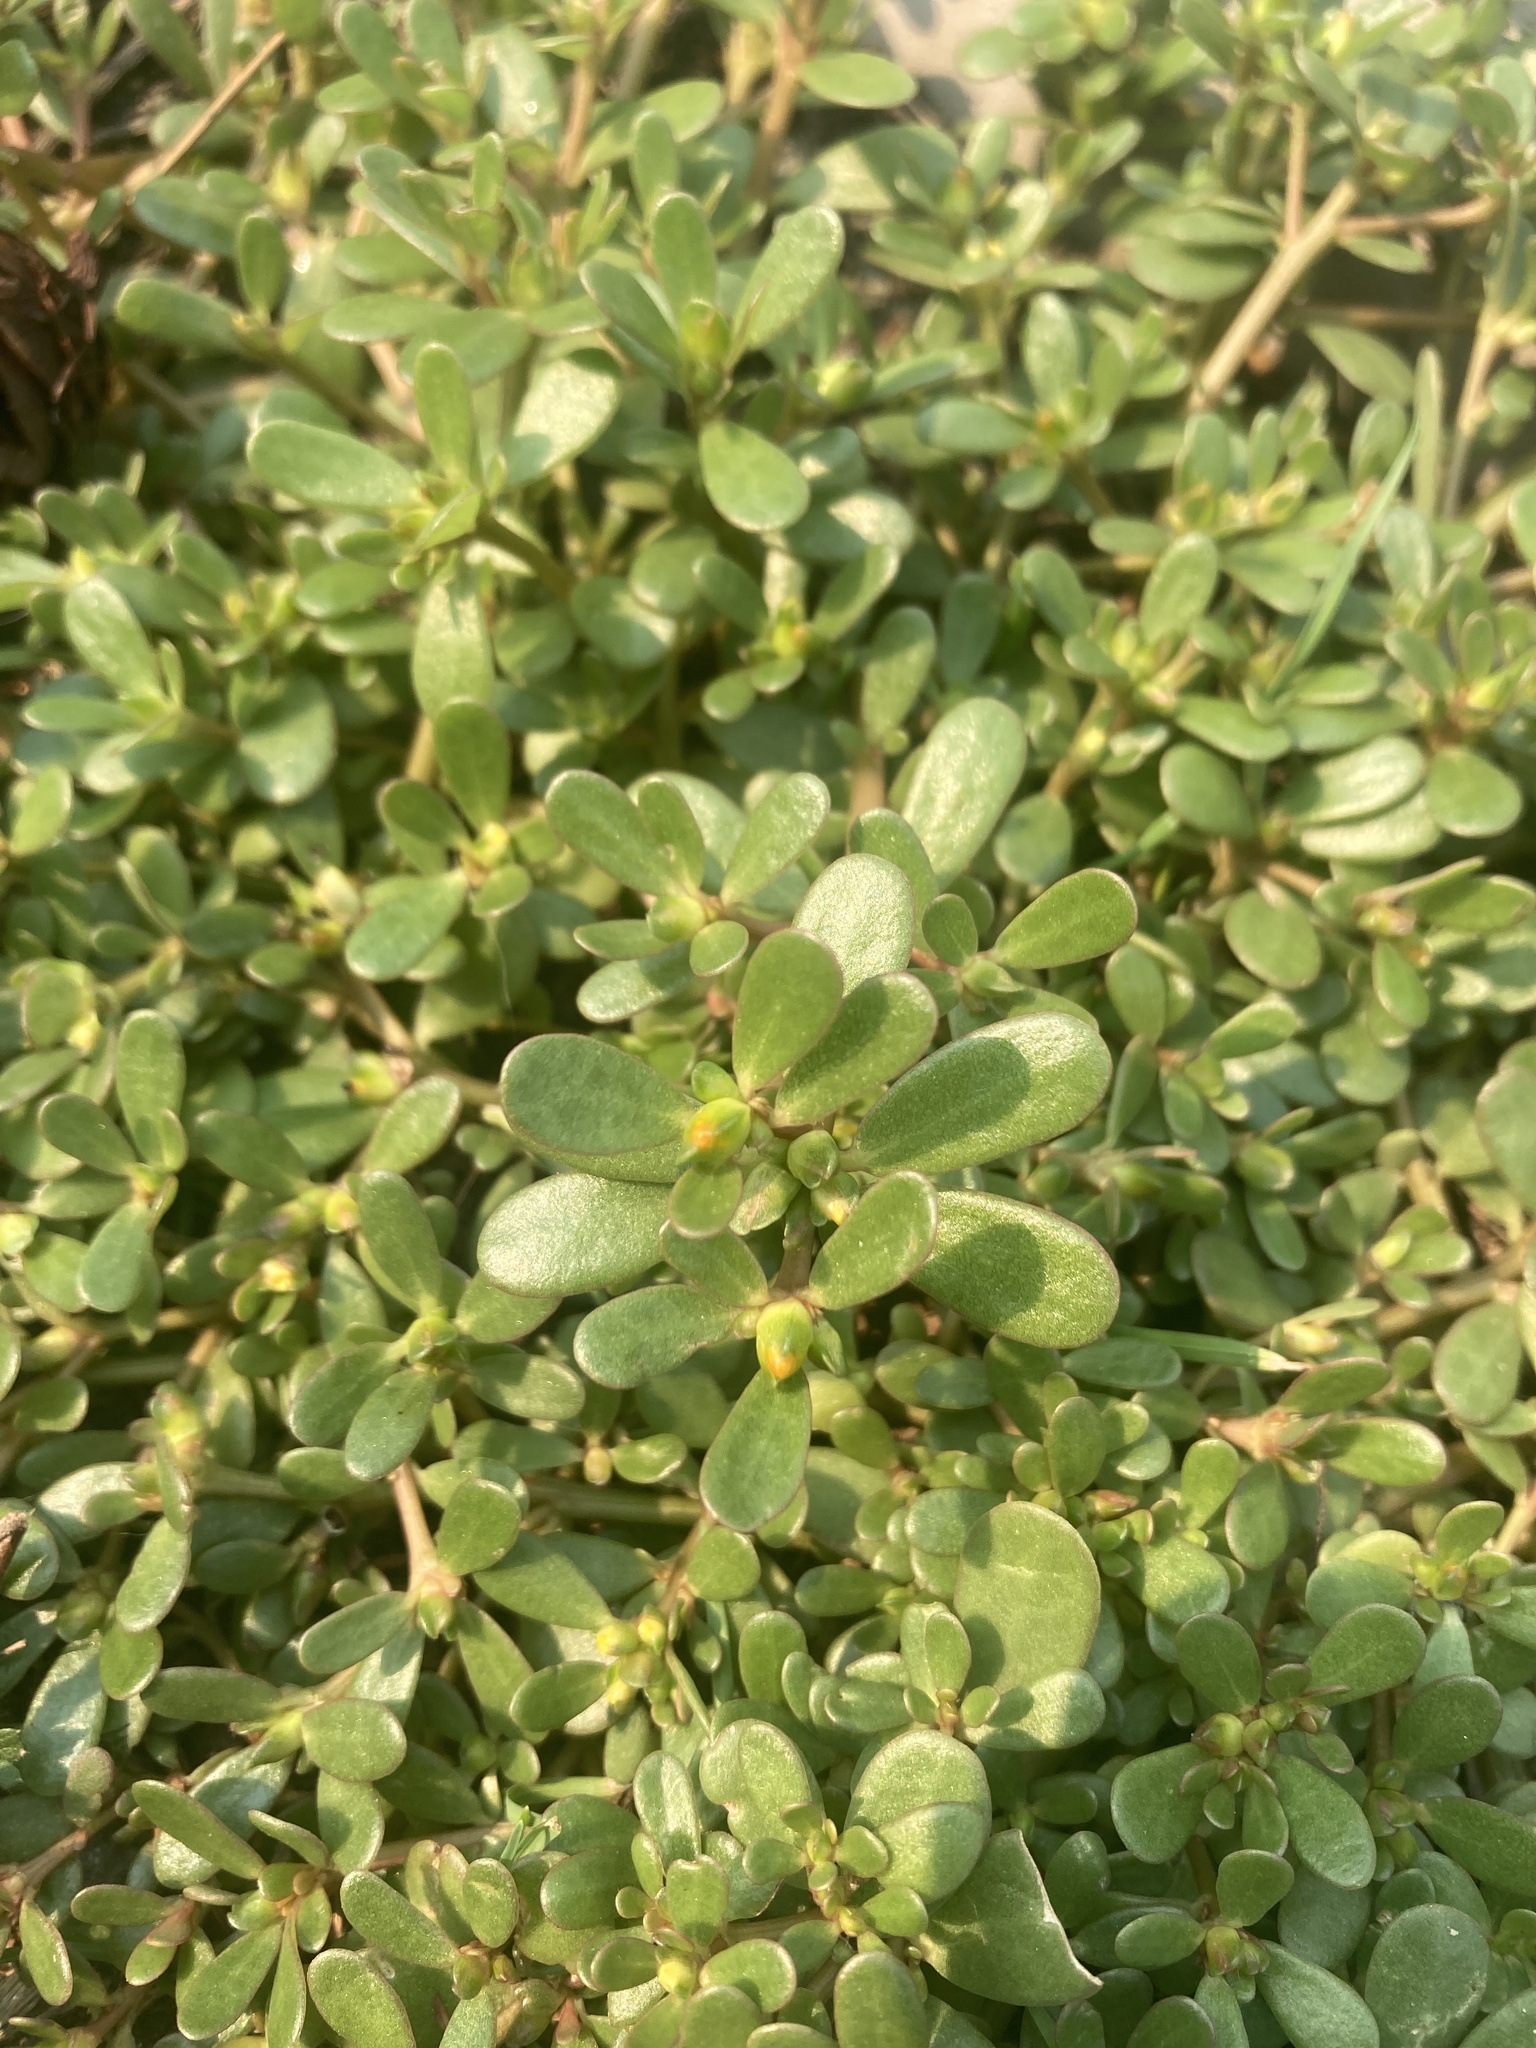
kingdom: Plantae
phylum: Tracheophyta
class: Magnoliopsida
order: Caryophyllales
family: Portulacaceae
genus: Portulaca
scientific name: Portulaca oleracea
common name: Common purslane
